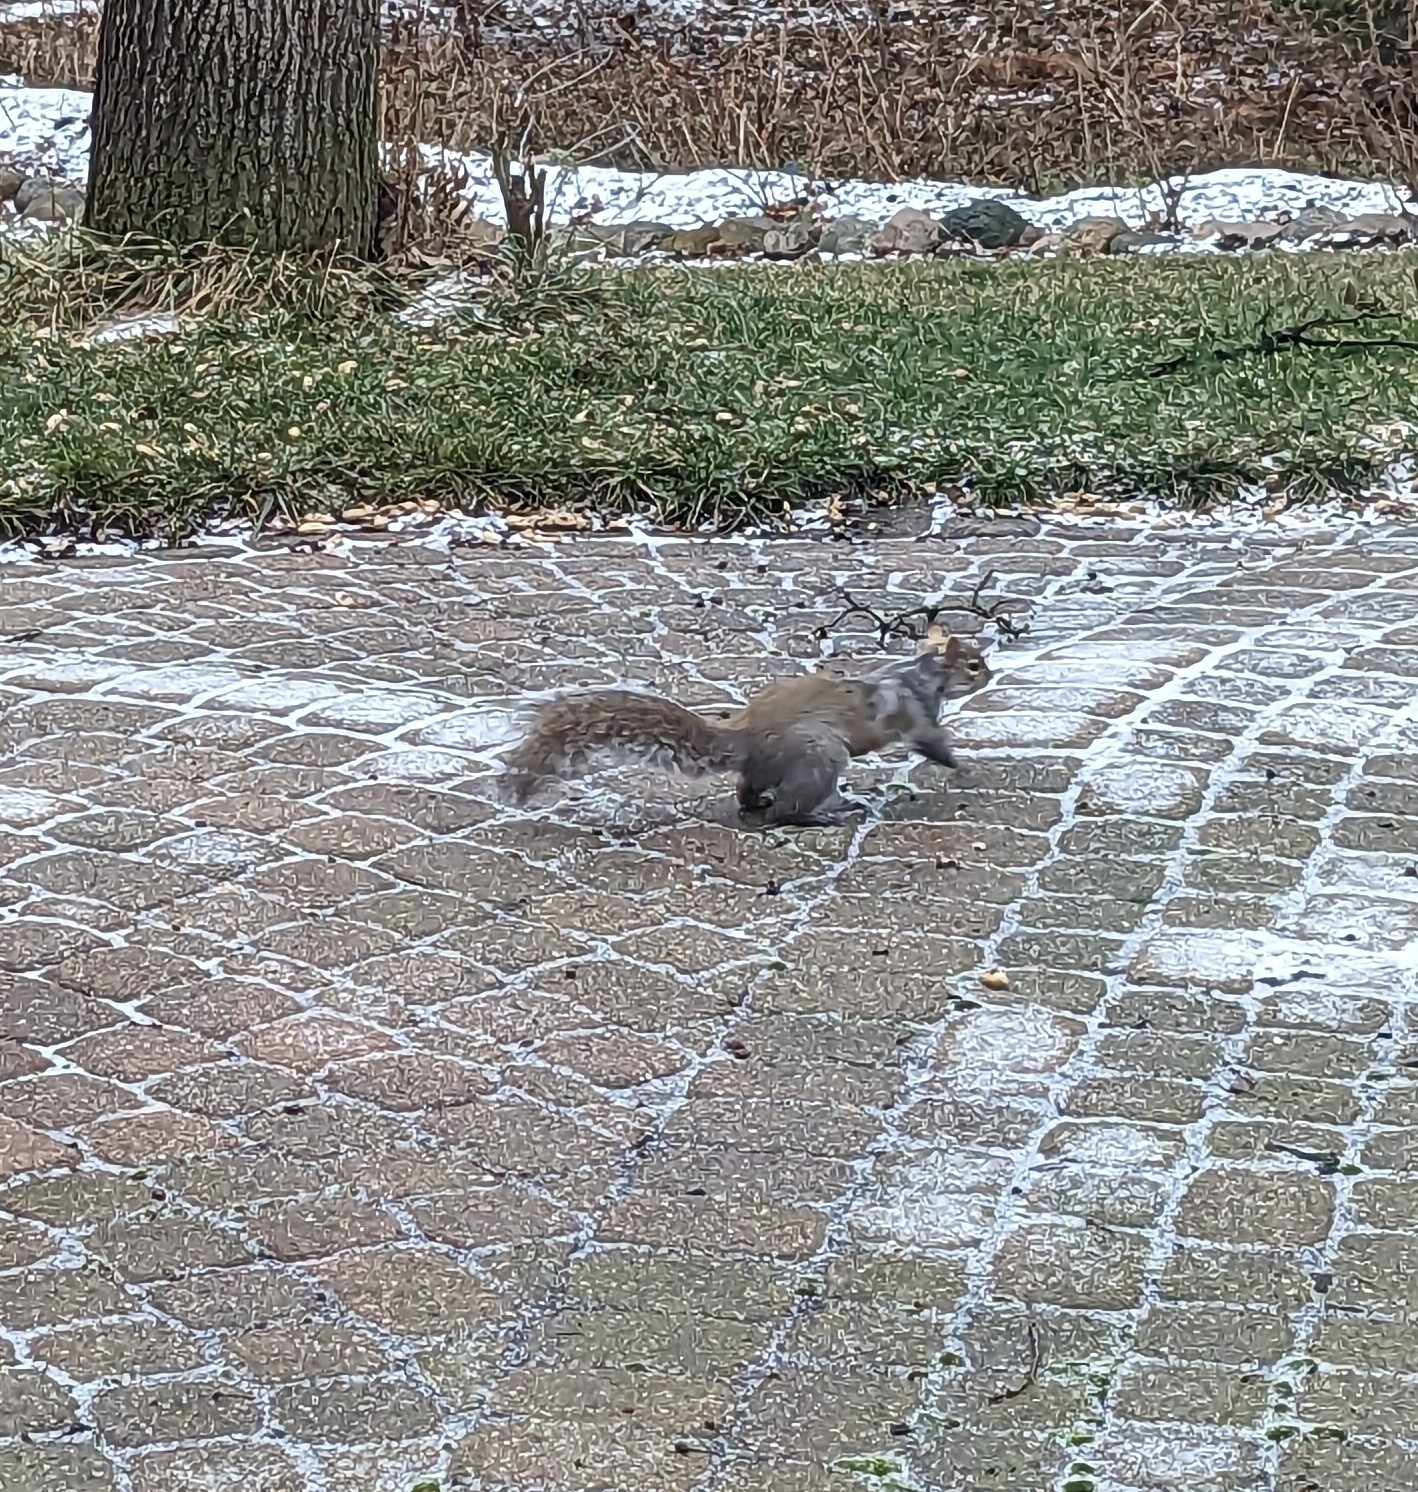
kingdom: Animalia
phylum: Chordata
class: Mammalia
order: Rodentia
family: Sciuridae
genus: Sciurus
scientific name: Sciurus carolinensis
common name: Eastern gray squirrel
